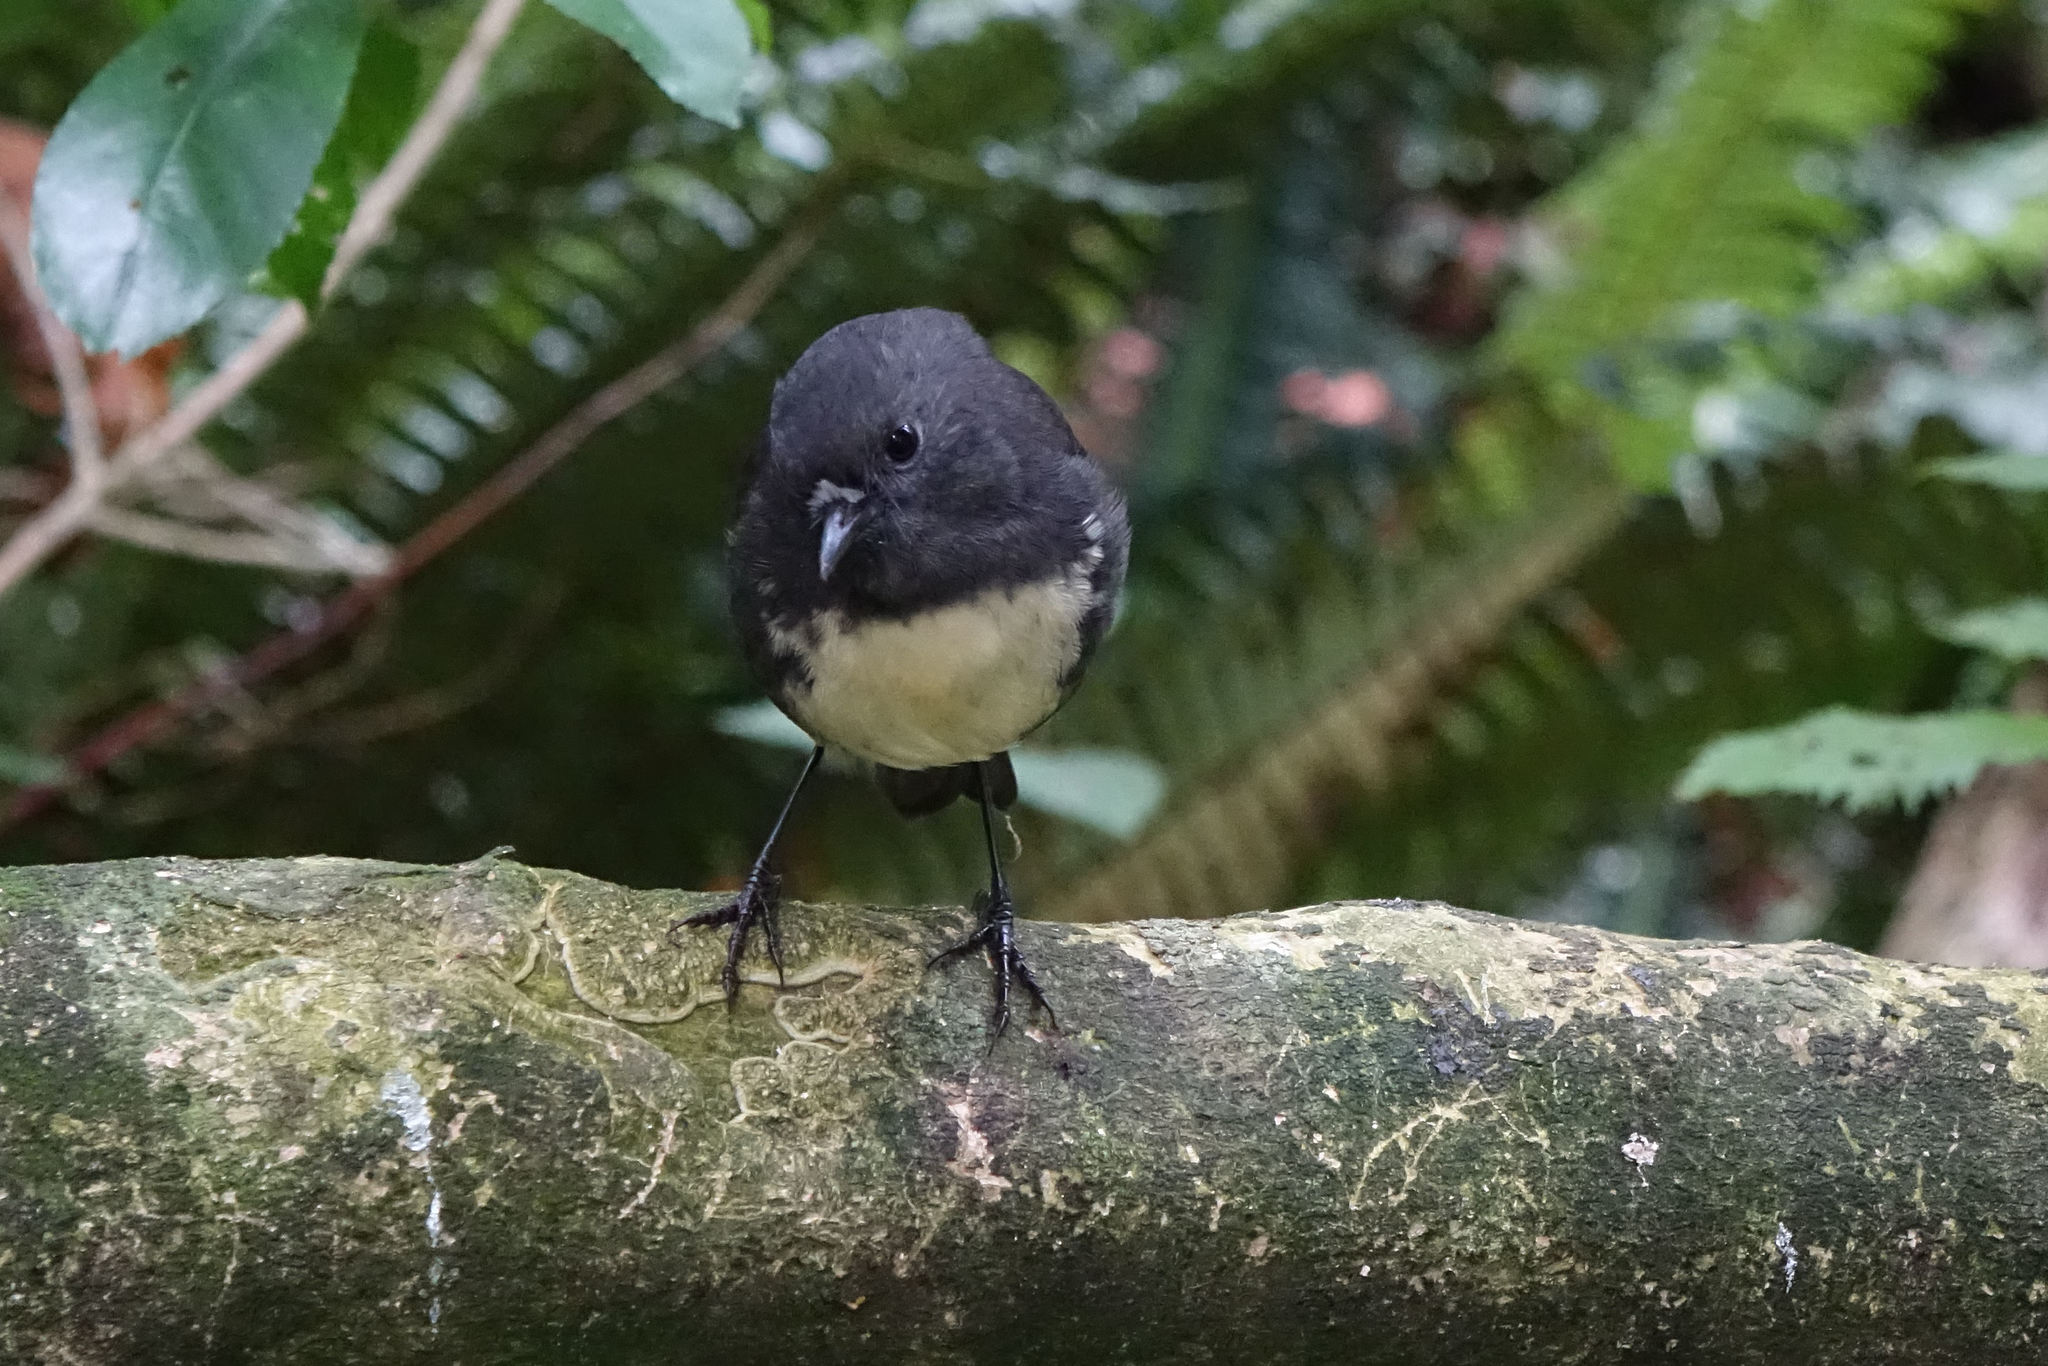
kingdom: Animalia
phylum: Chordata
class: Aves
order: Passeriformes
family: Petroicidae
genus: Petroica
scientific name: Petroica australis
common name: New zealand robin
